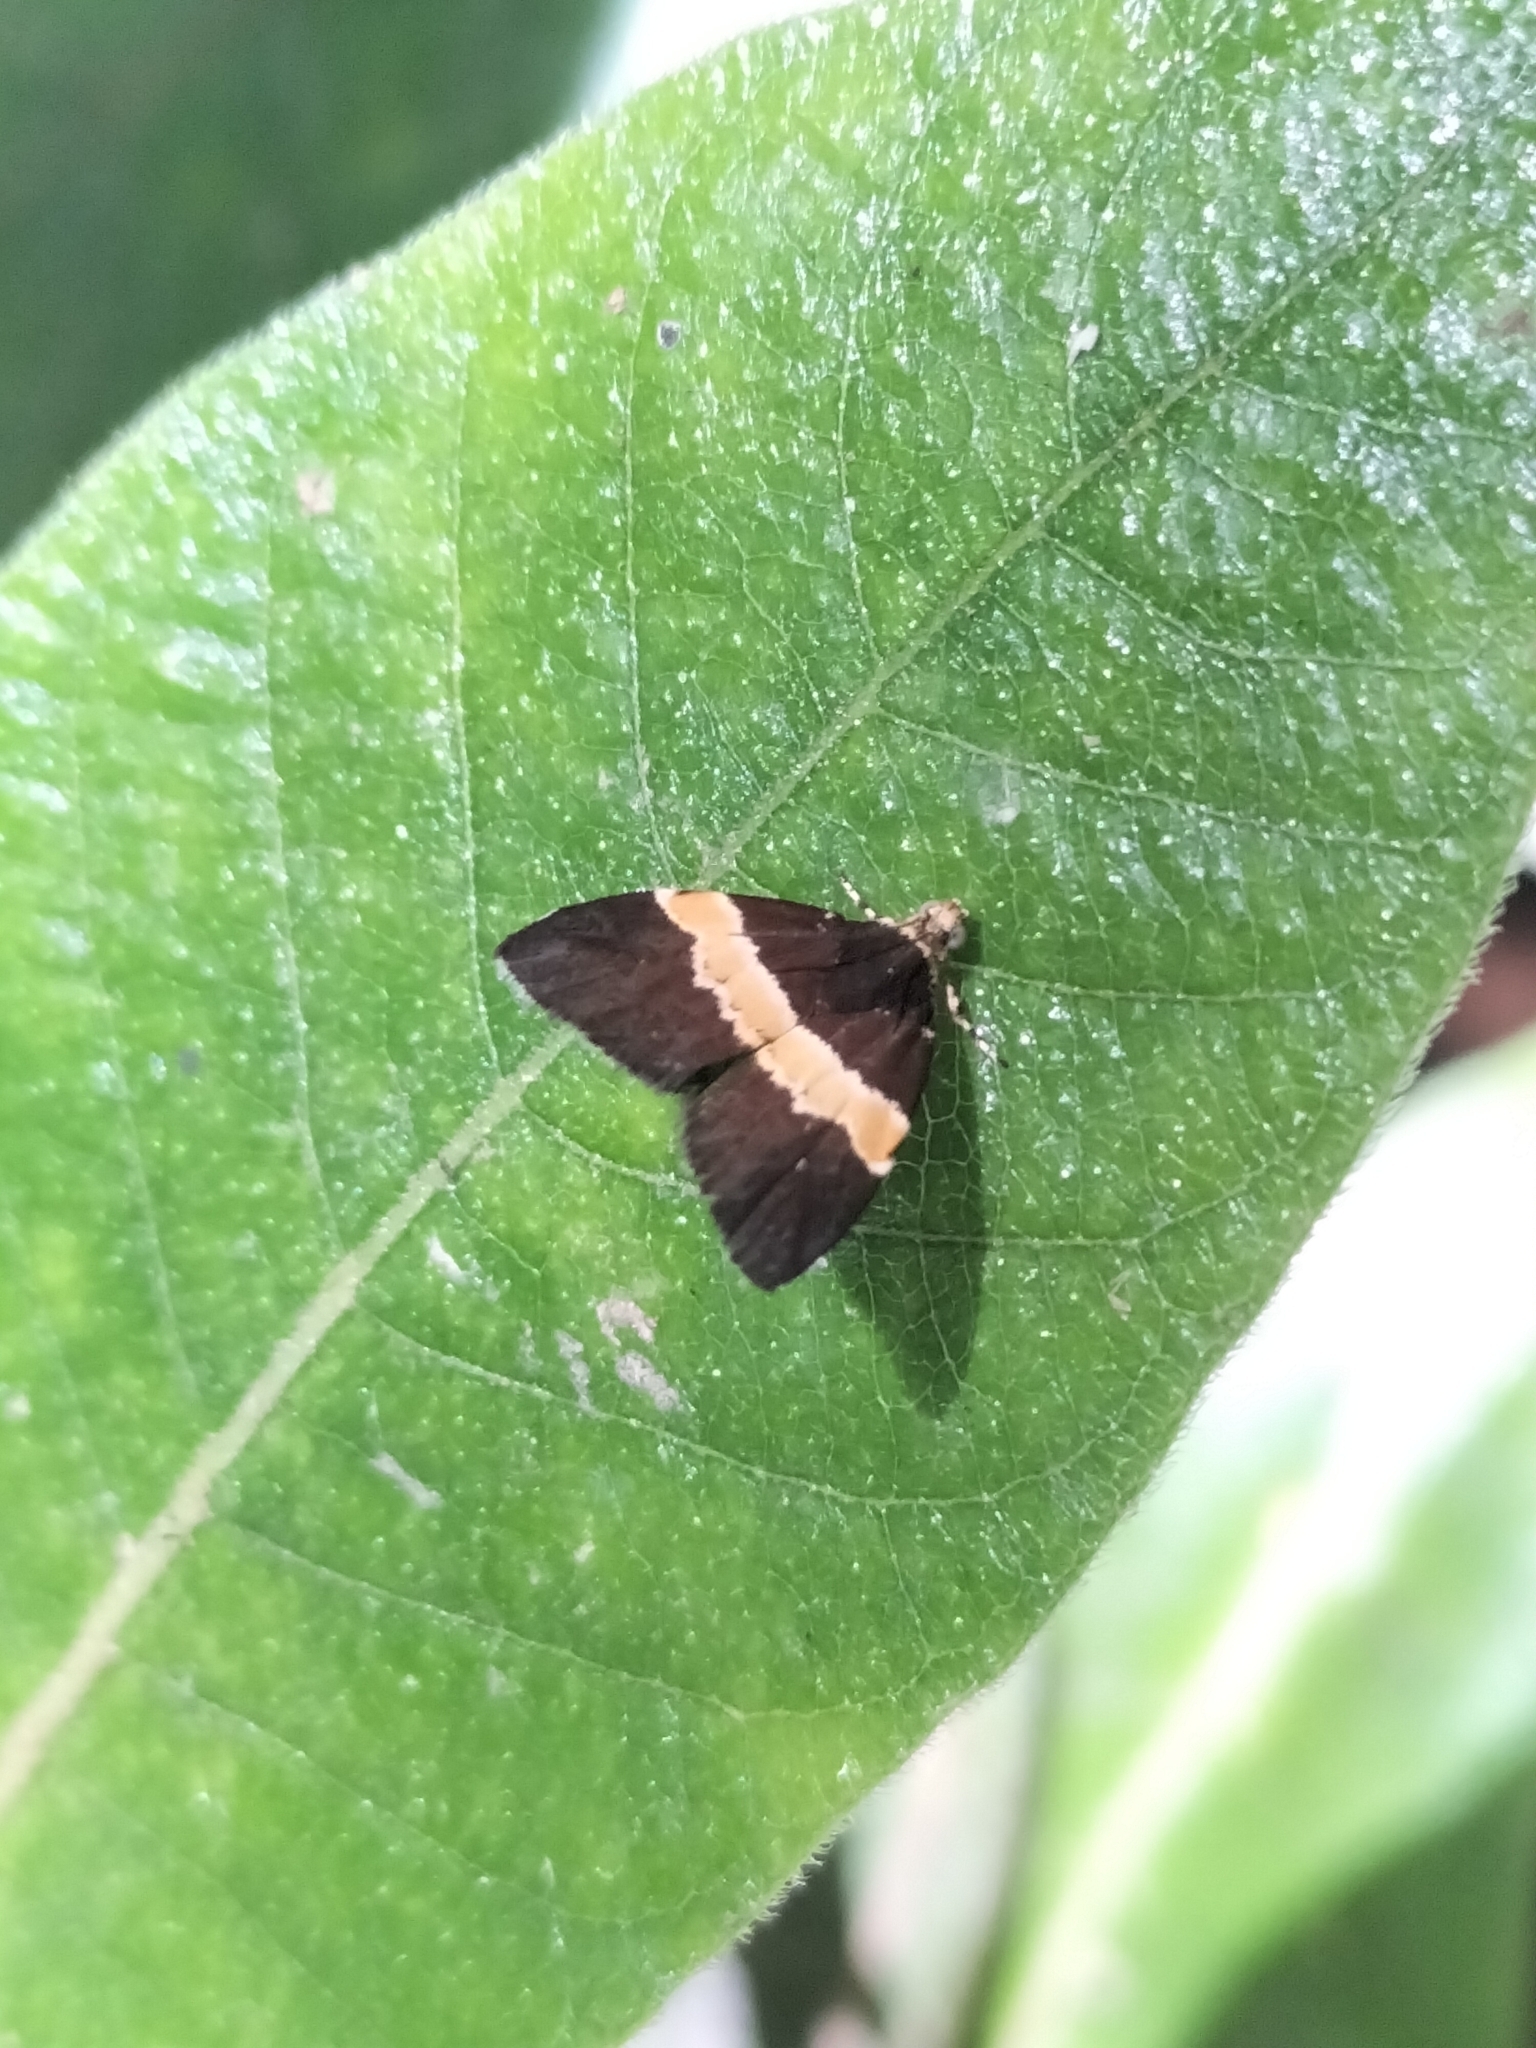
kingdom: Animalia
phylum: Arthropoda
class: Insecta
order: Lepidoptera
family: Choreutidae
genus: Choreutis
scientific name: Choreutis basalis
